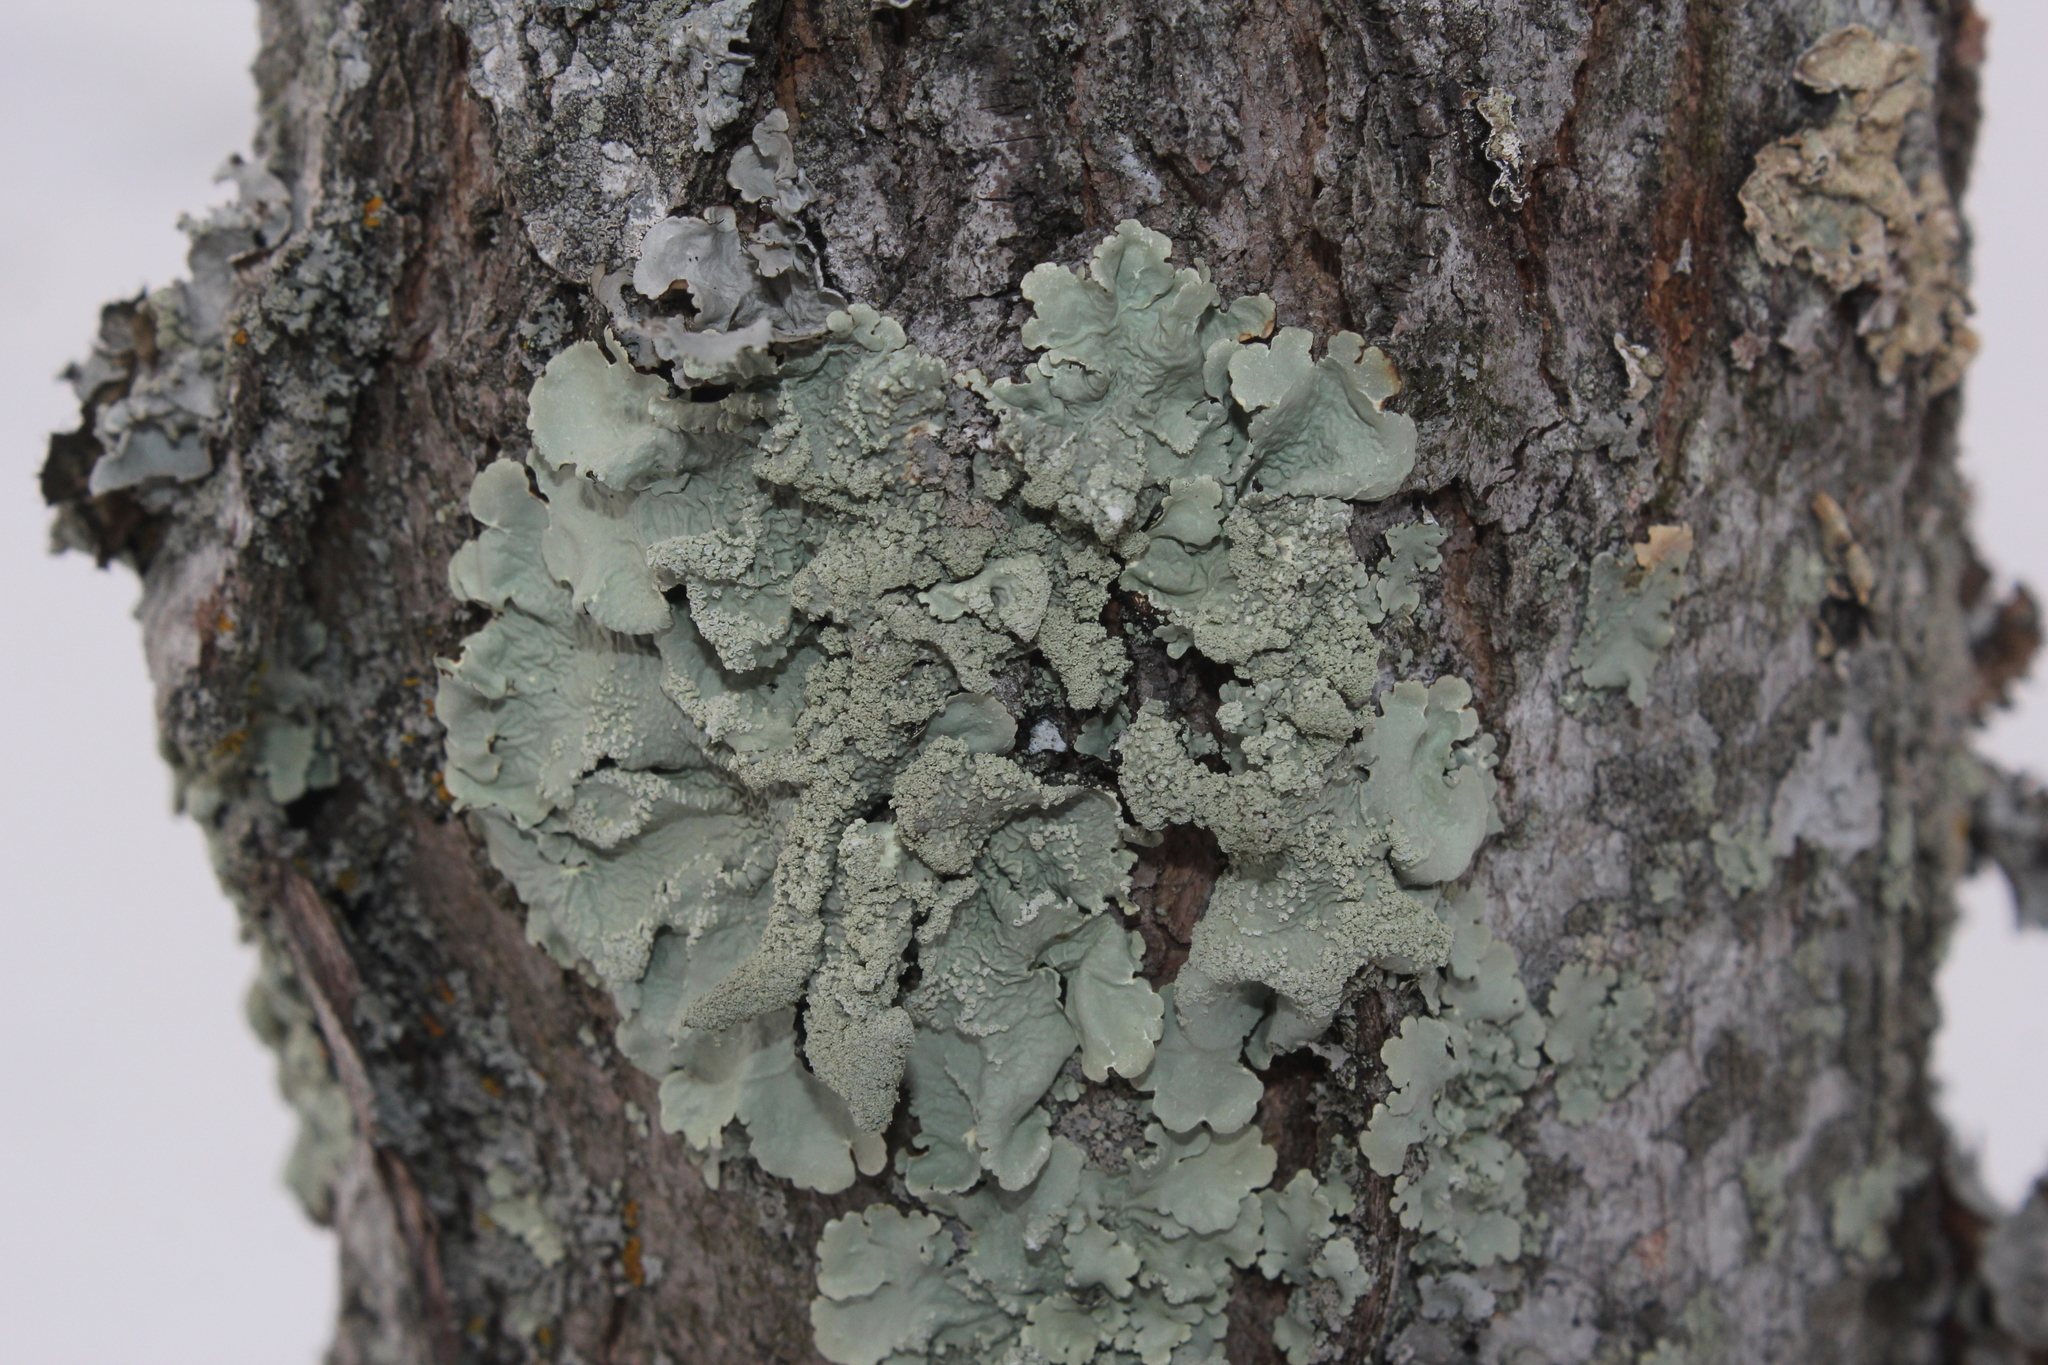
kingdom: Fungi
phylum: Ascomycota
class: Lecanoromycetes
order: Lecanorales
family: Parmeliaceae
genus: Flavoparmelia
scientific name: Flavoparmelia caperata
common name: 40-mile per hour lichen
